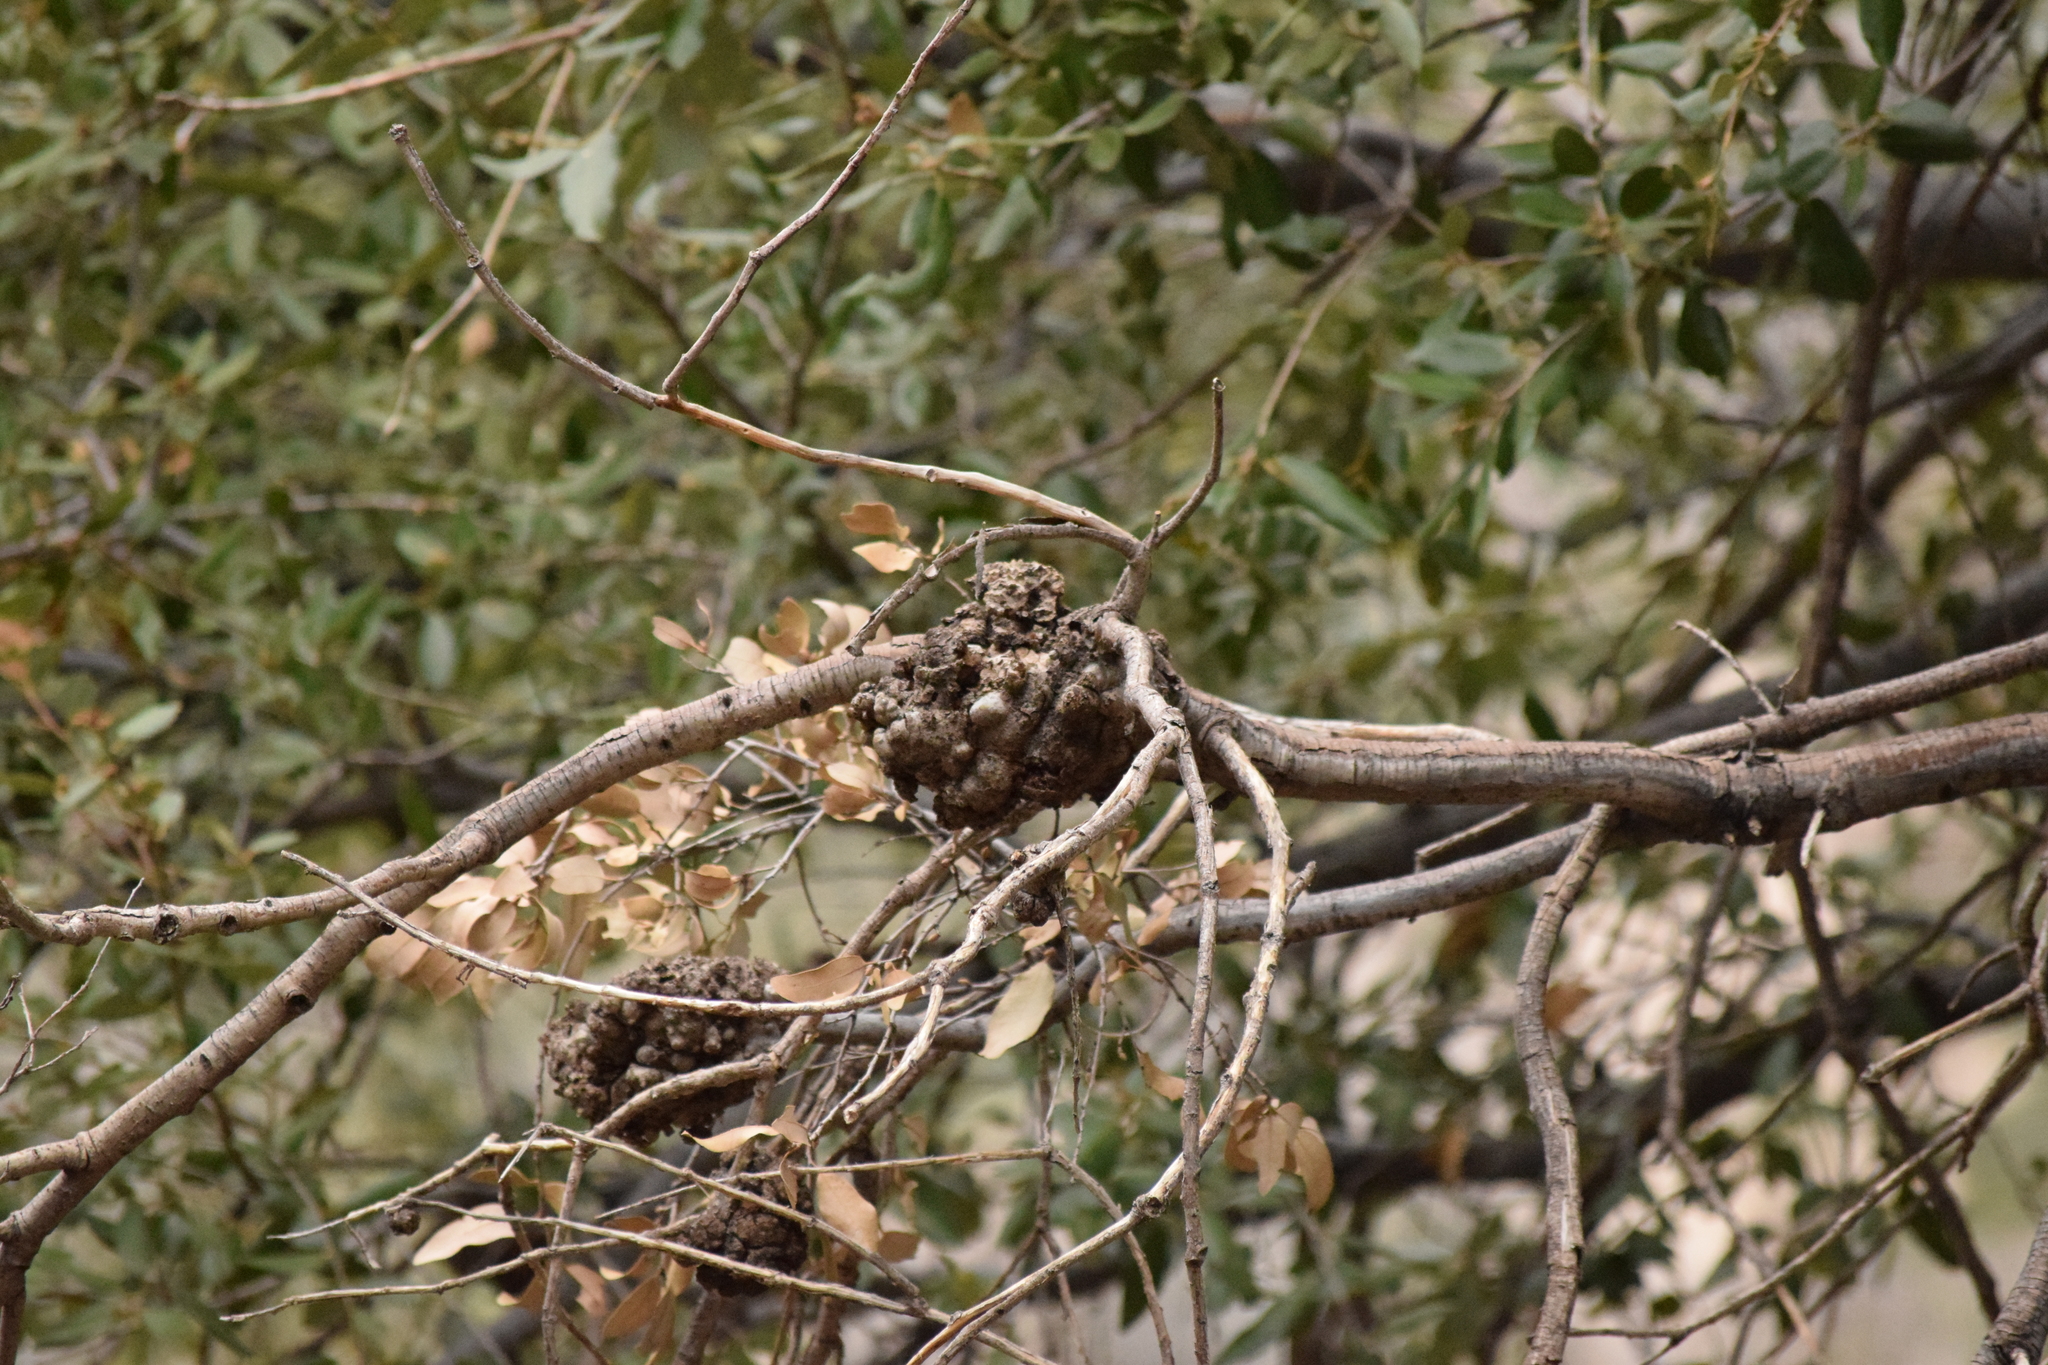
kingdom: Plantae
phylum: Tracheophyta
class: Magnoliopsida
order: Fagales
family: Fagaceae
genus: Quercus
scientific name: Quercus chrysolepis
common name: Canyon live oak
